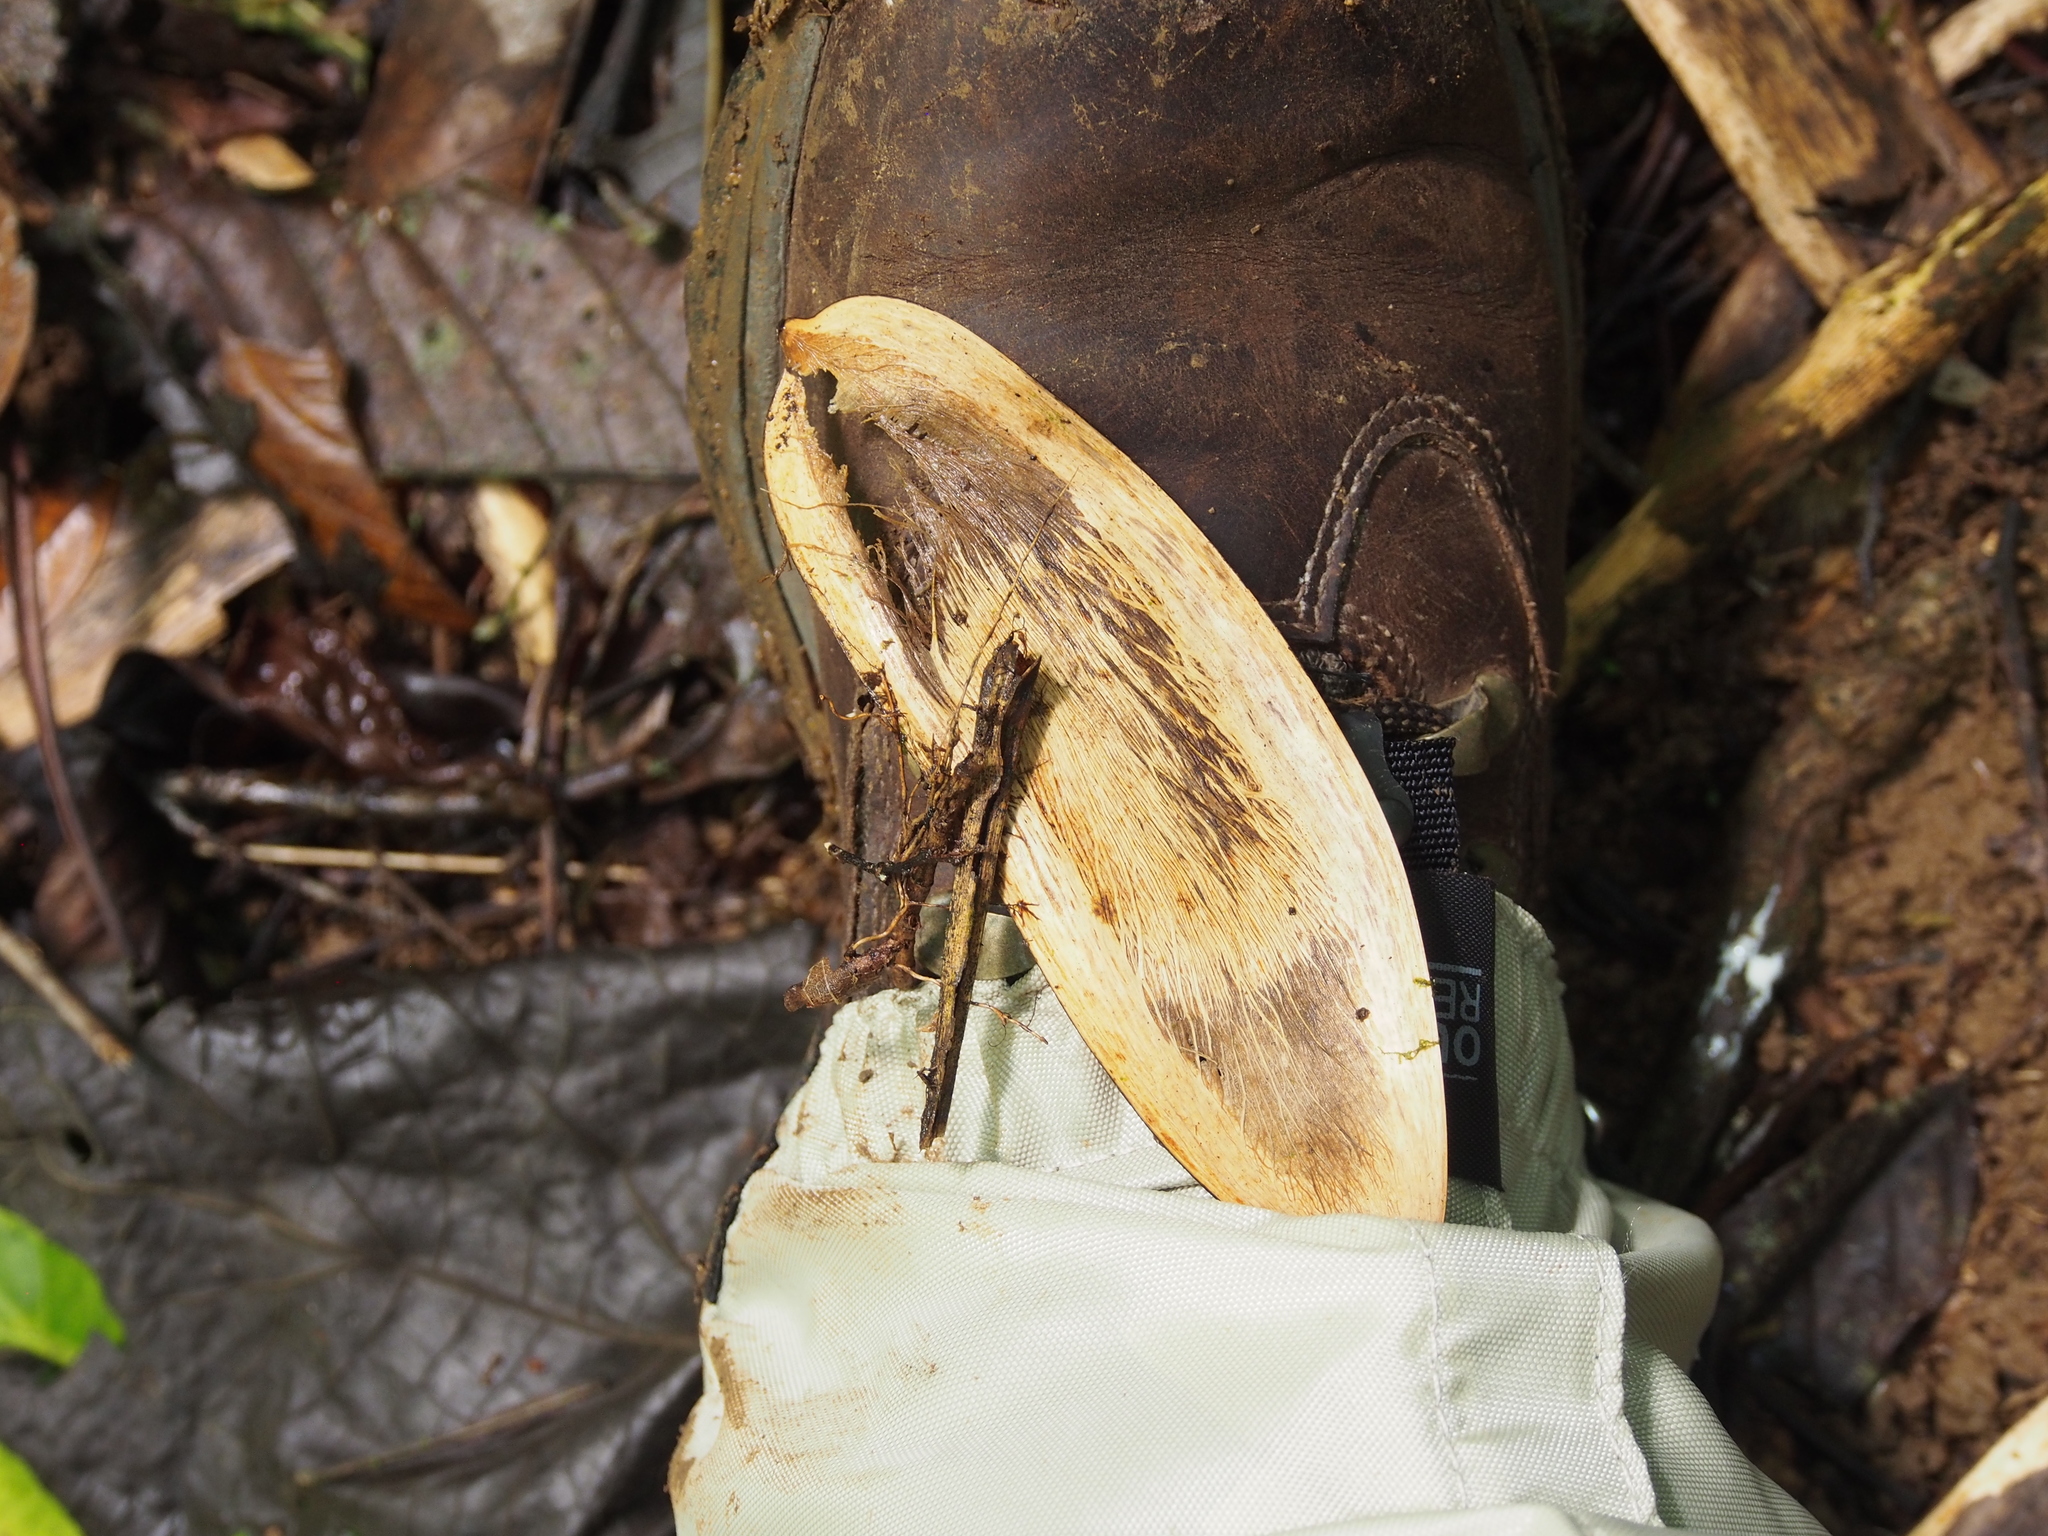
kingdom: Plantae
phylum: Tracheophyta
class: Magnoliopsida
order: Fabales
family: Fabaceae
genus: Tachigali
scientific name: Tachigali costaricensis
